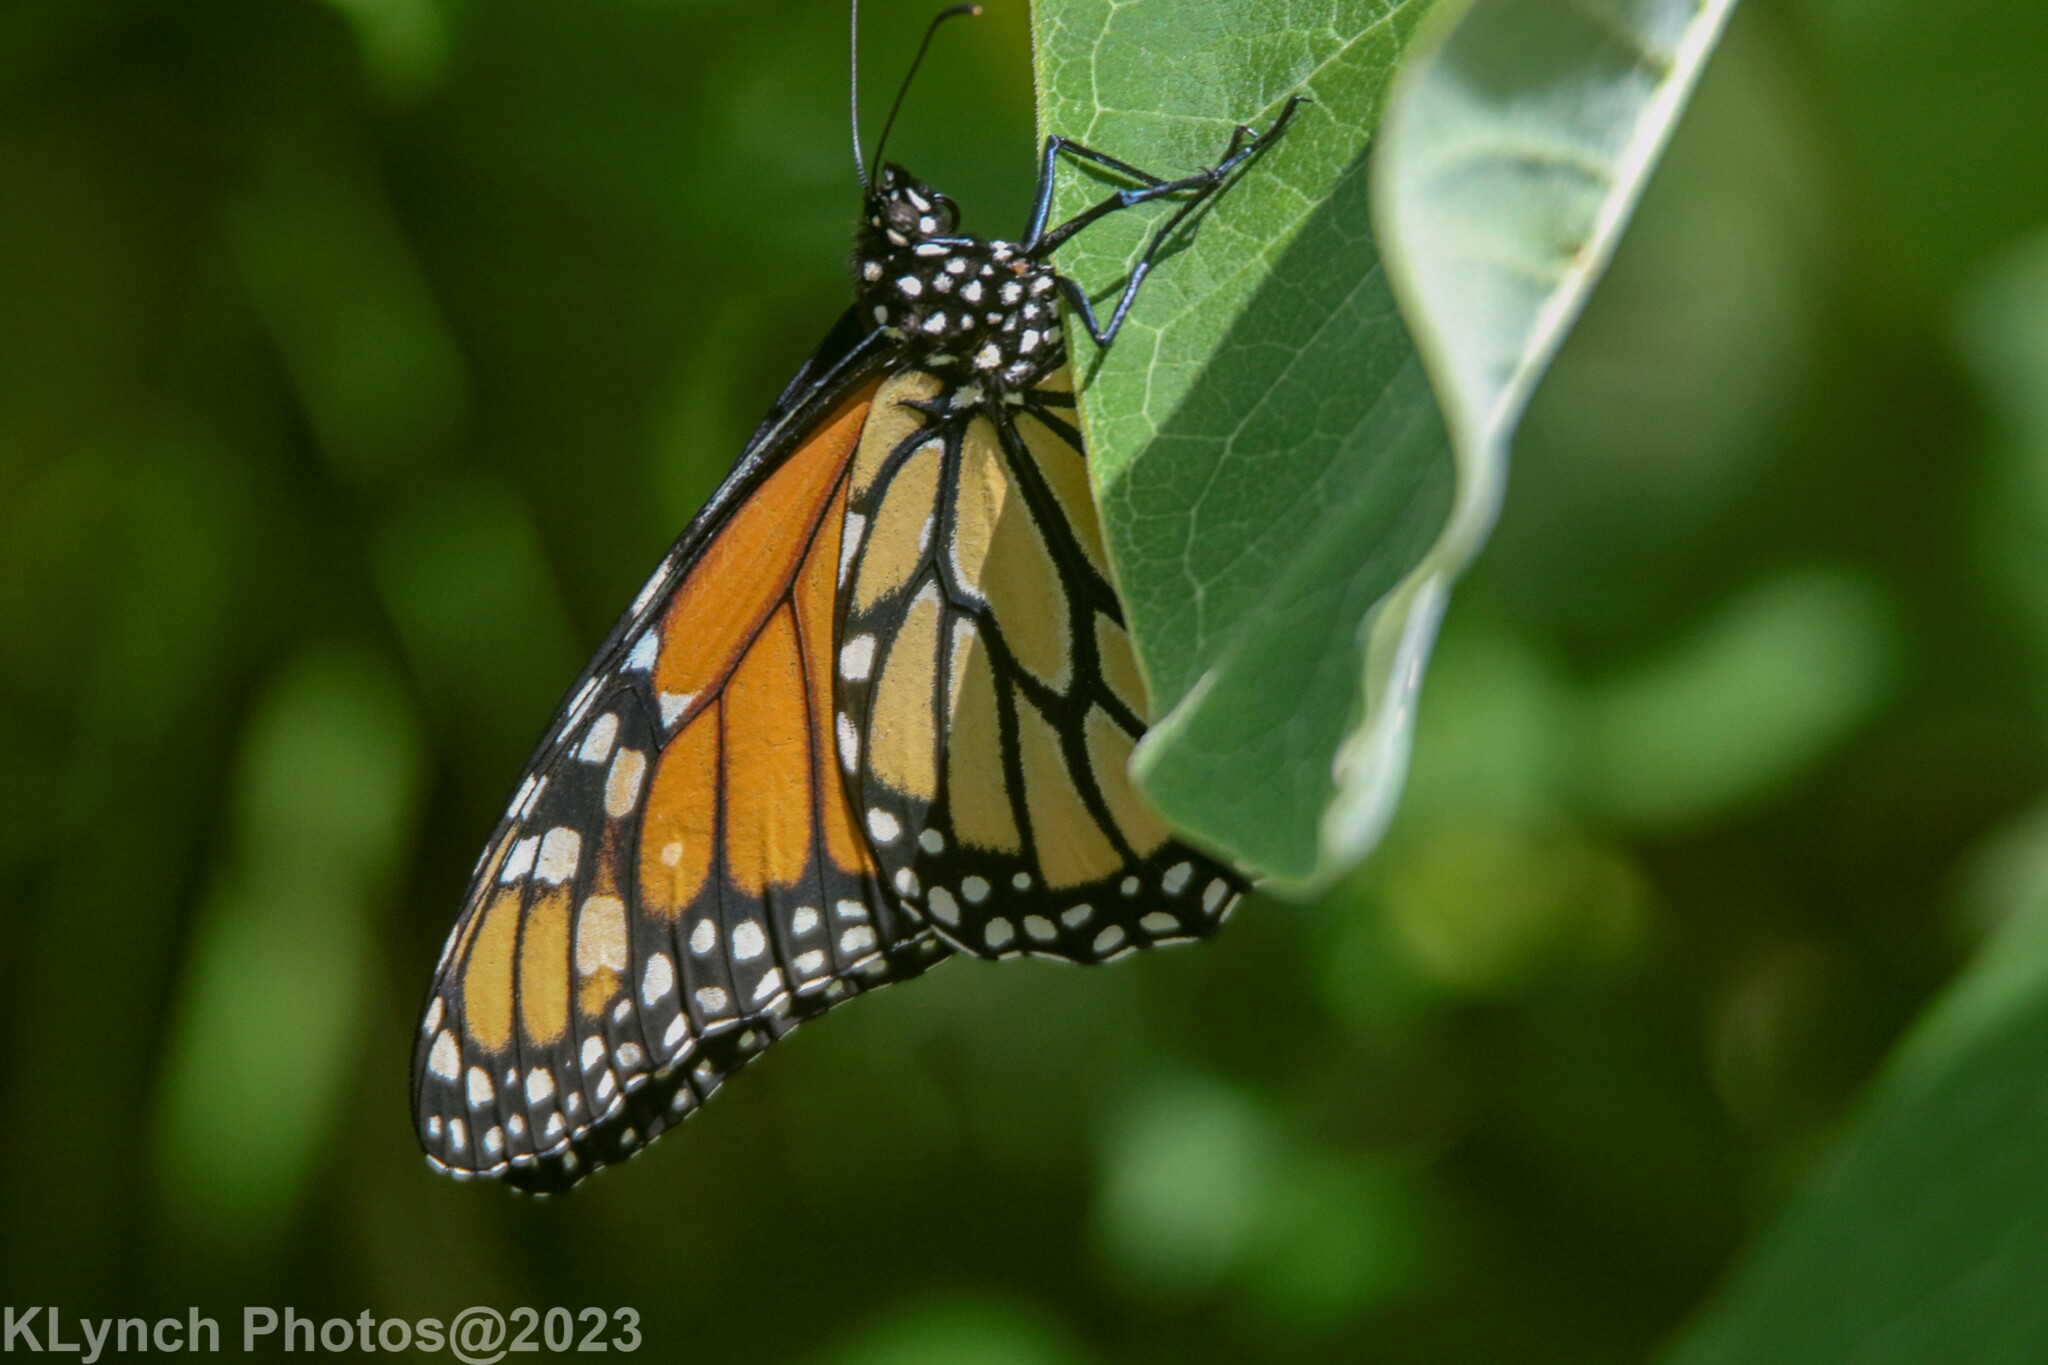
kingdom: Animalia
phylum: Arthropoda
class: Insecta
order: Lepidoptera
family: Nymphalidae
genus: Danaus
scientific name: Danaus plexippus
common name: Monarch
